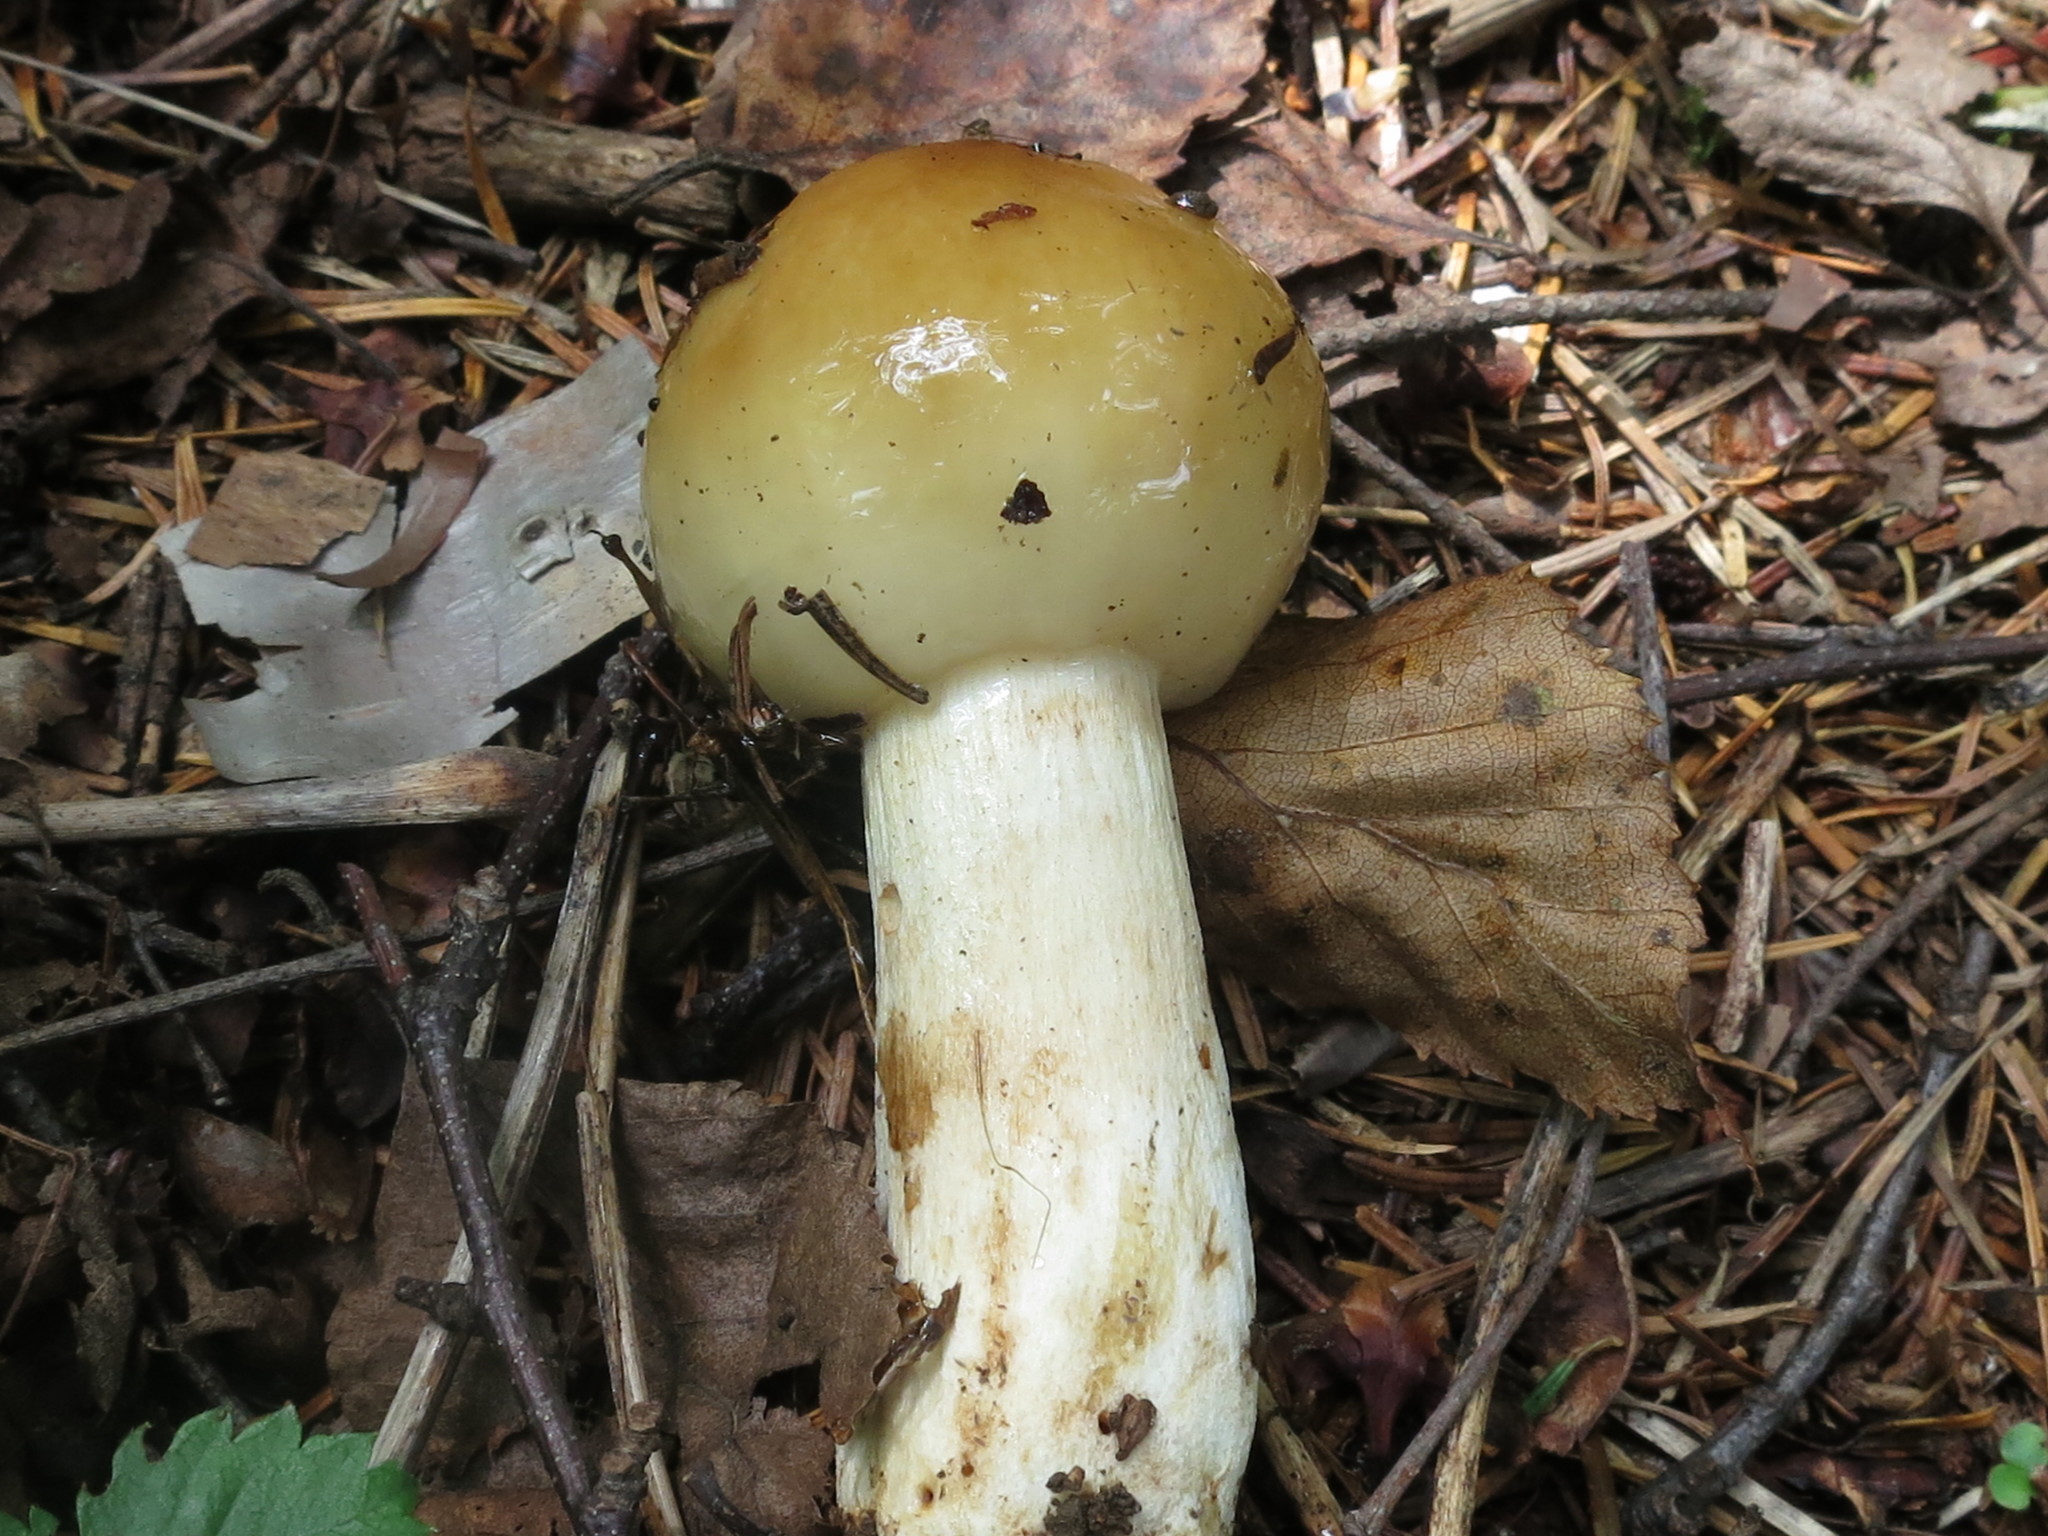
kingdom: Fungi
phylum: Basidiomycota
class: Agaricomycetes
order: Russulales
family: Russulaceae
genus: Russula
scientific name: Russula foetens
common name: Foetid russula
